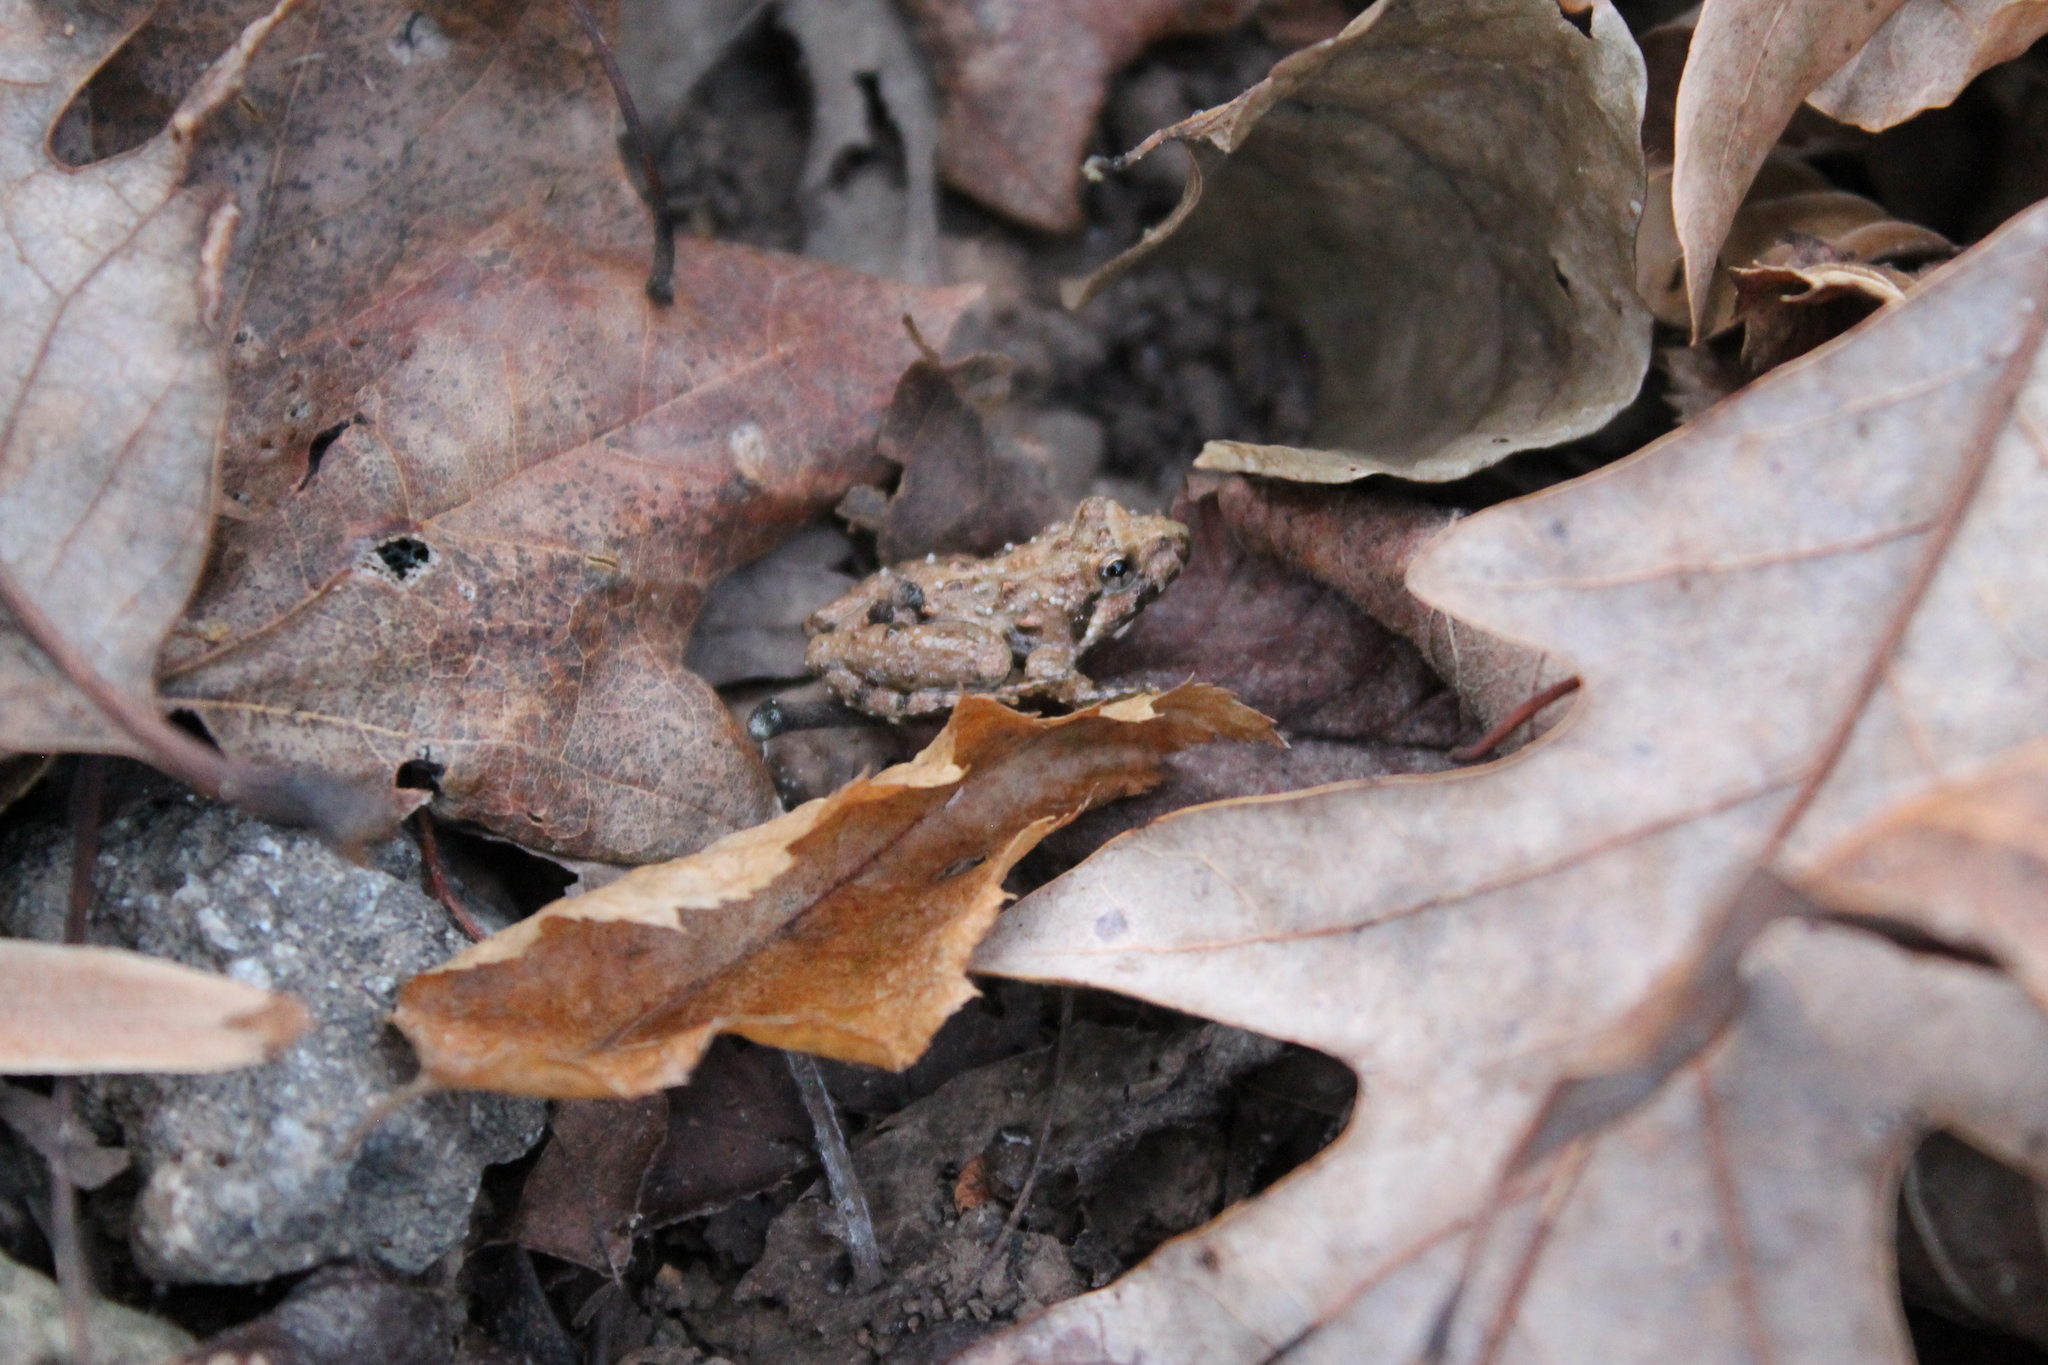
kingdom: Animalia
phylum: Chordata
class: Amphibia
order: Anura
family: Hylidae
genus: Acris
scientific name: Acris crepitans
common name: Northern cricket frog
